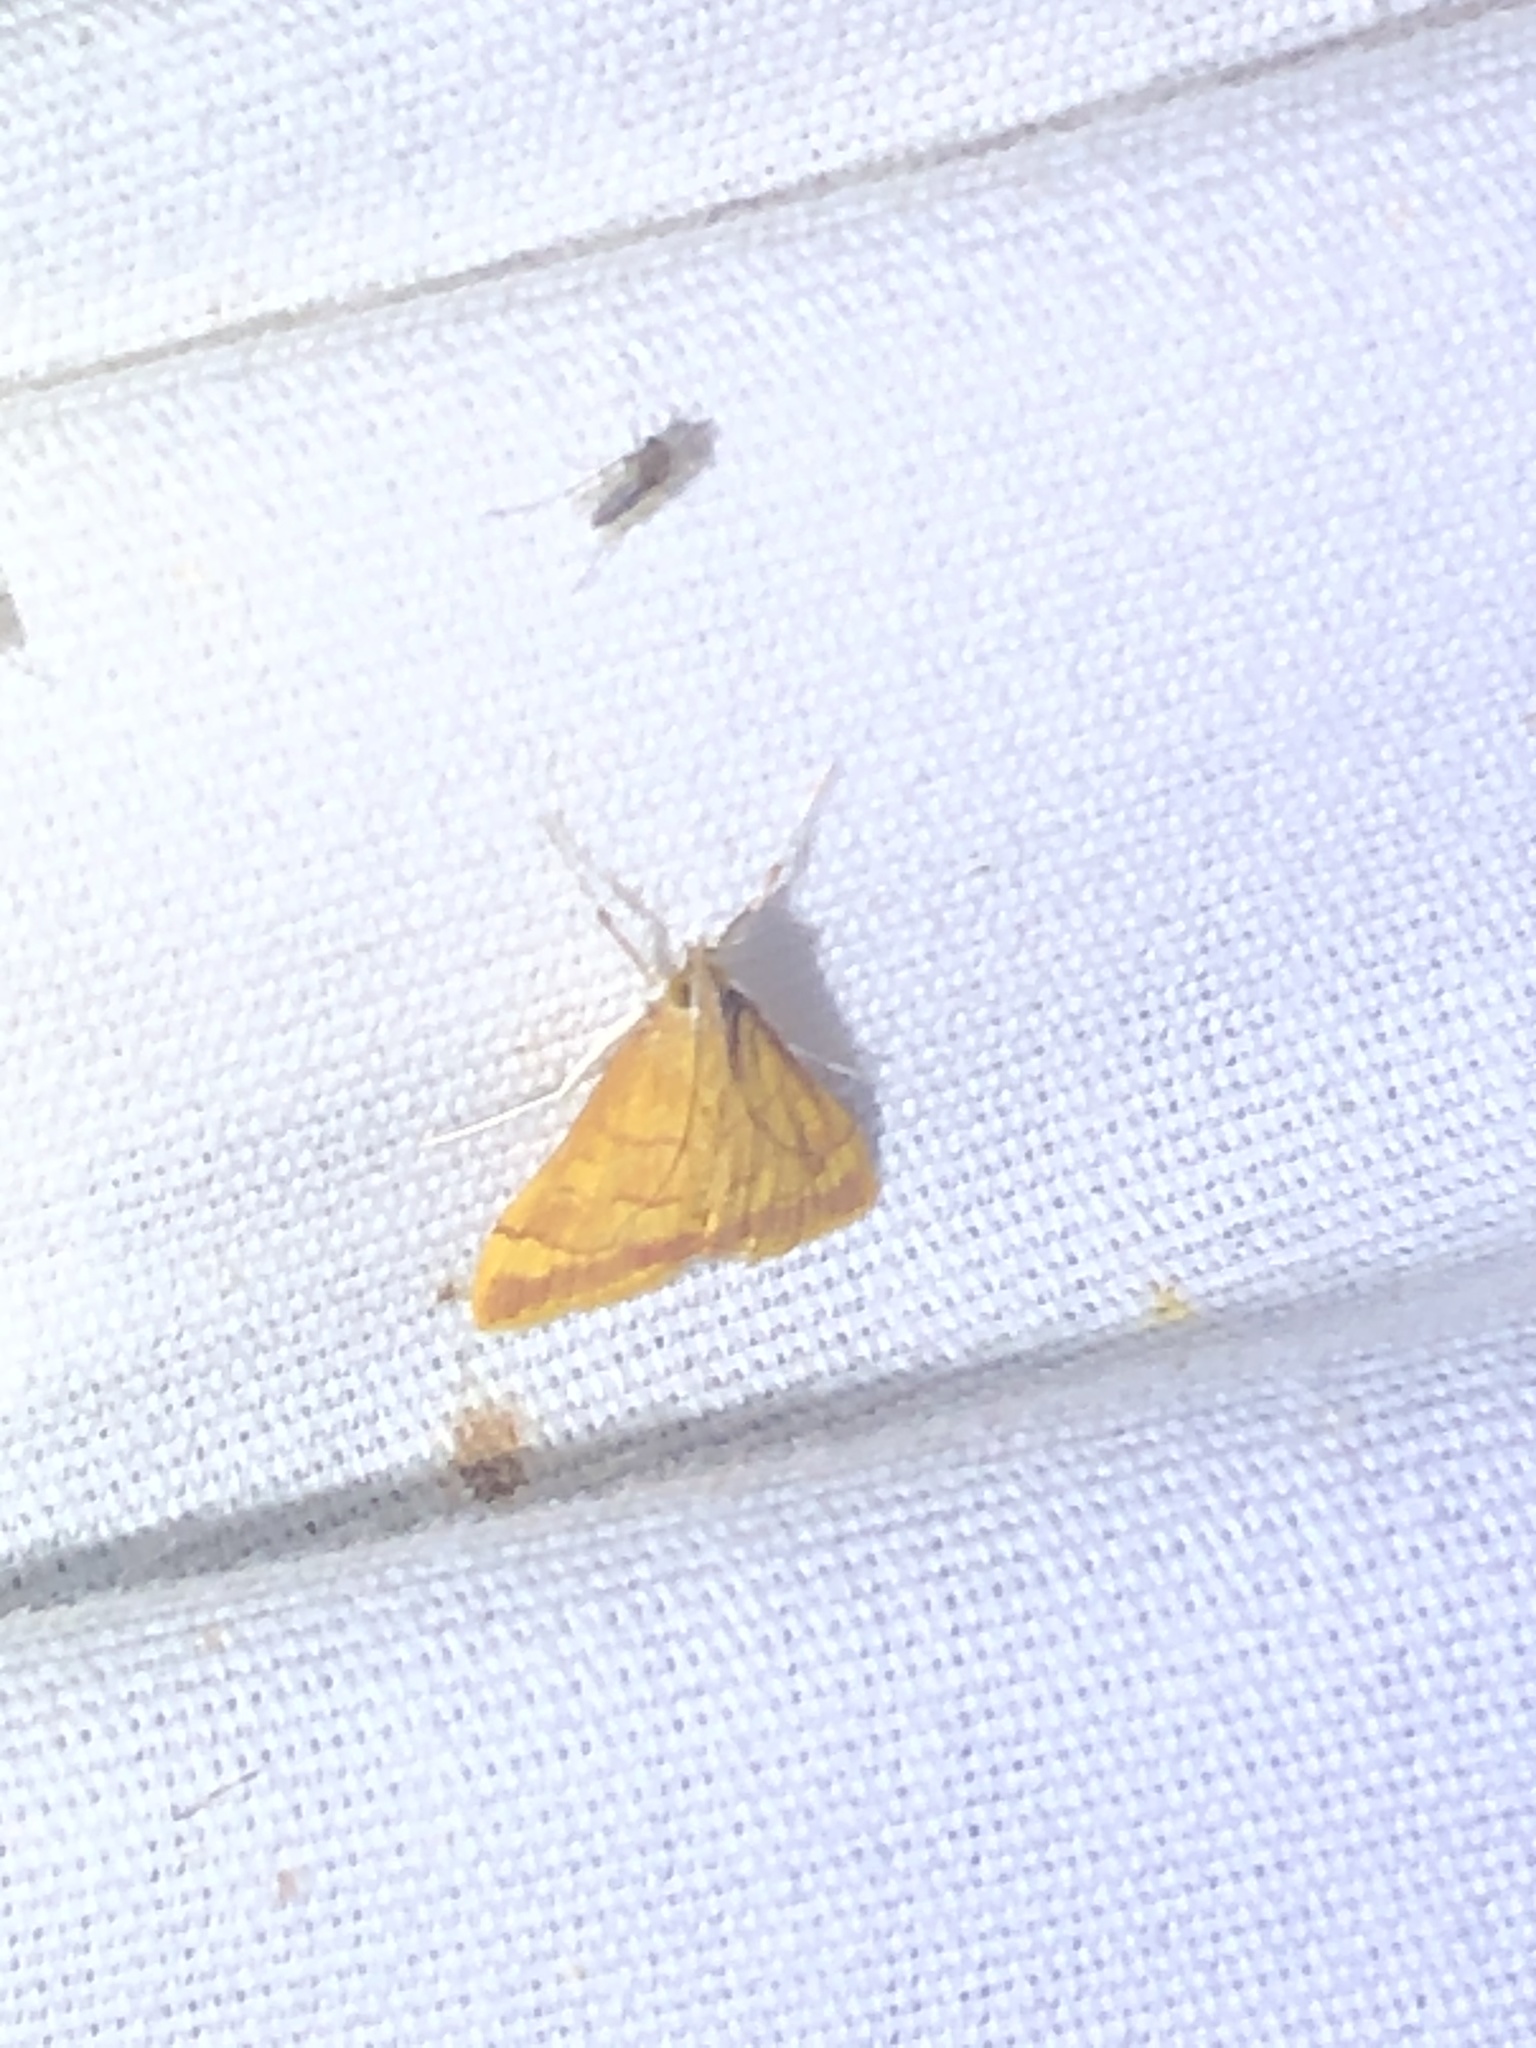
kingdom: Animalia
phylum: Arthropoda
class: Insecta
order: Lepidoptera
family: Crambidae
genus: Pyrausta
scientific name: Pyrausta pseudonythesalis
